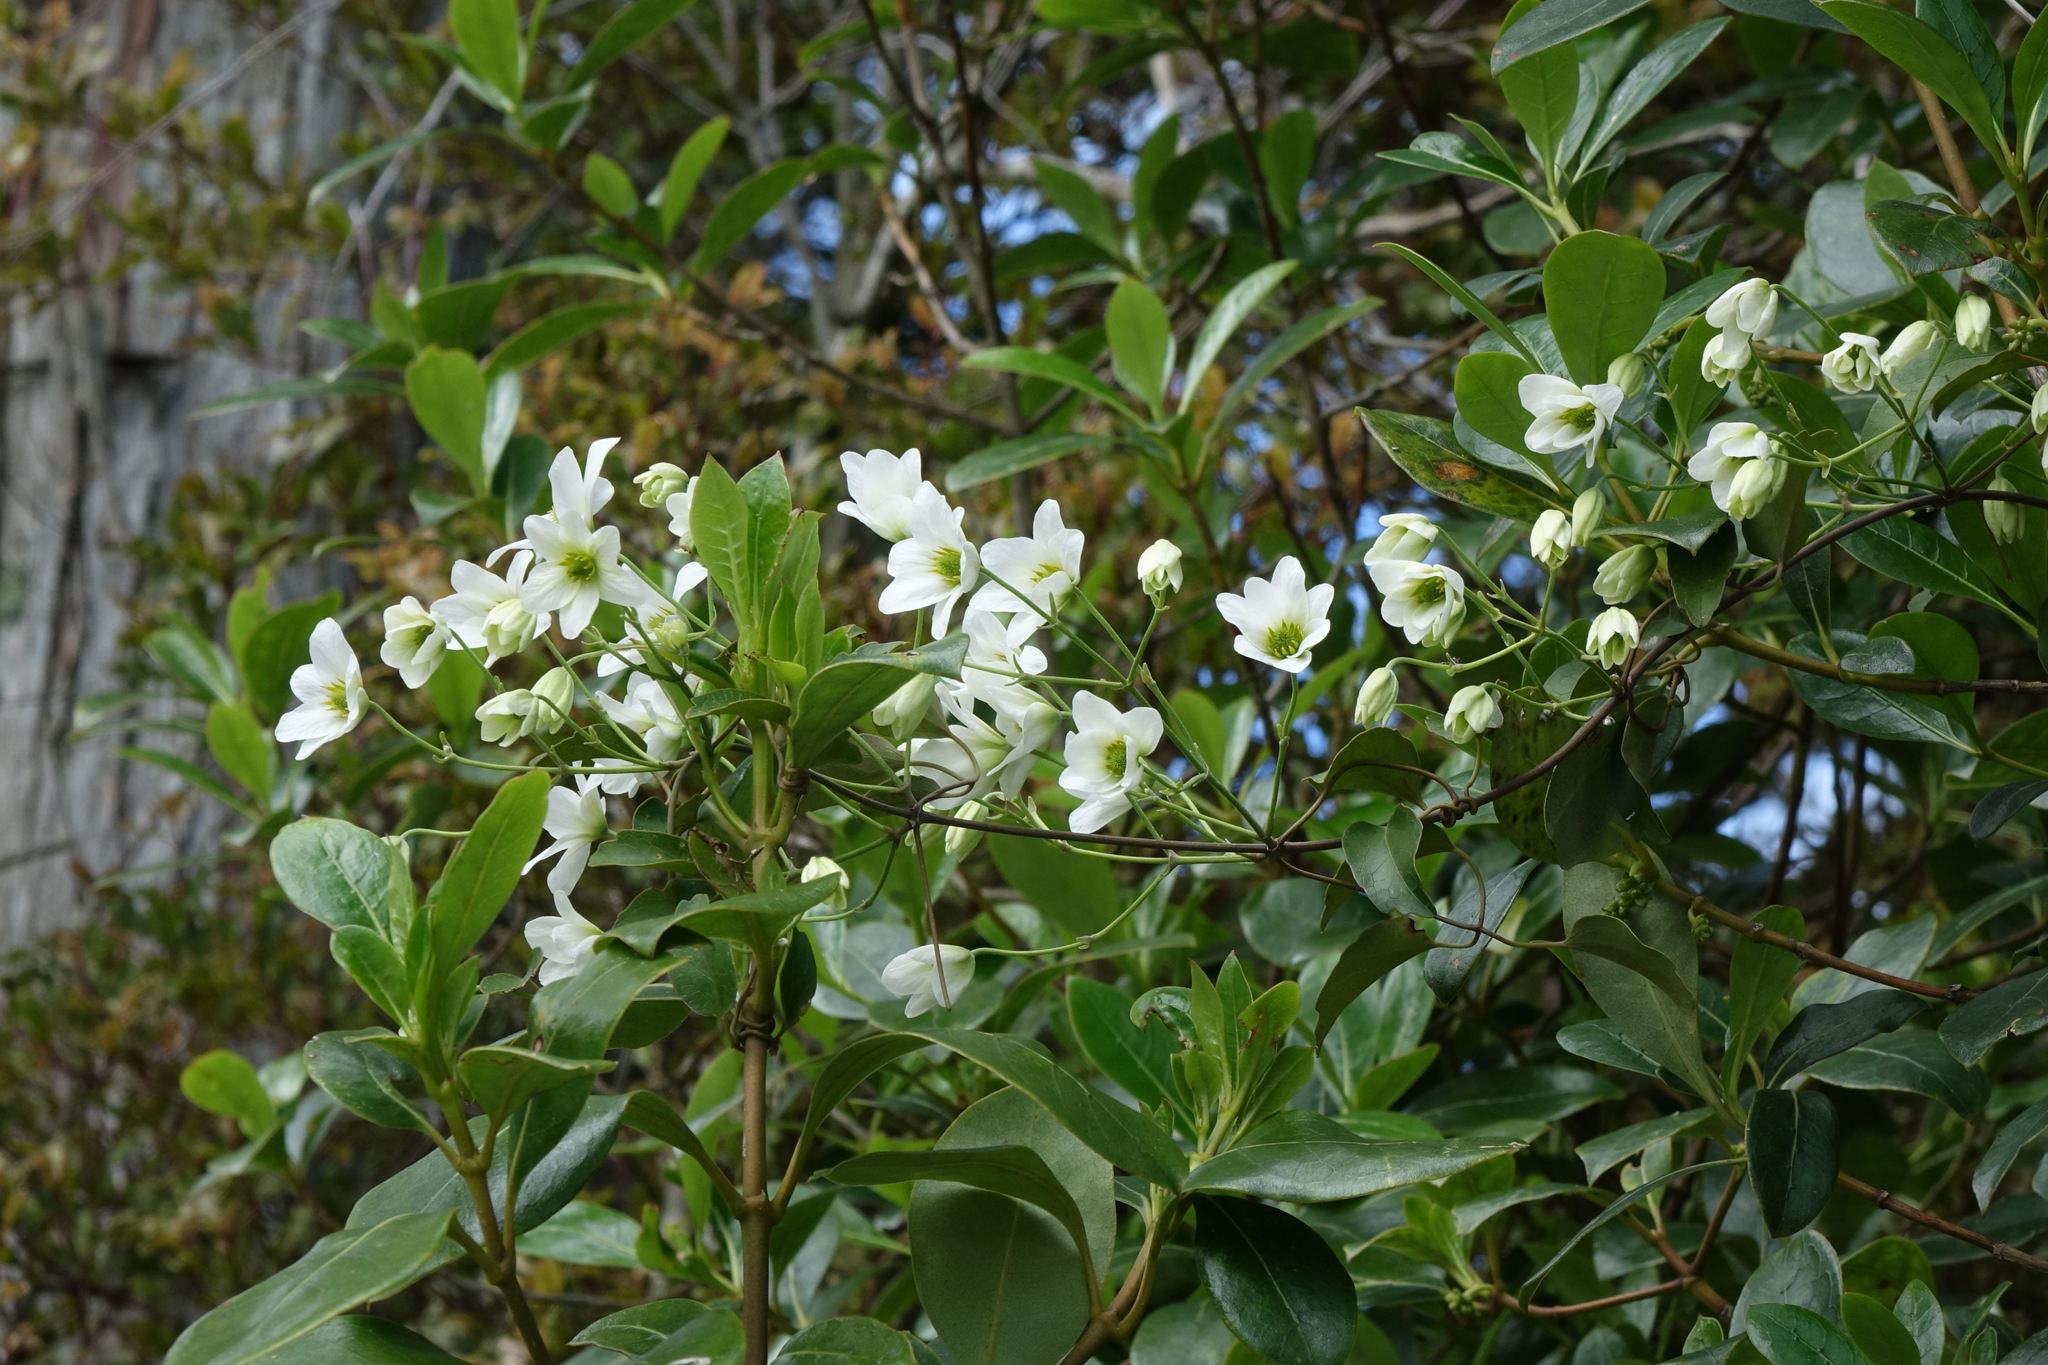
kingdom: Plantae
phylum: Tracheophyta
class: Magnoliopsida
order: Ranunculales
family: Ranunculaceae
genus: Clematis
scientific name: Clematis paniculata
